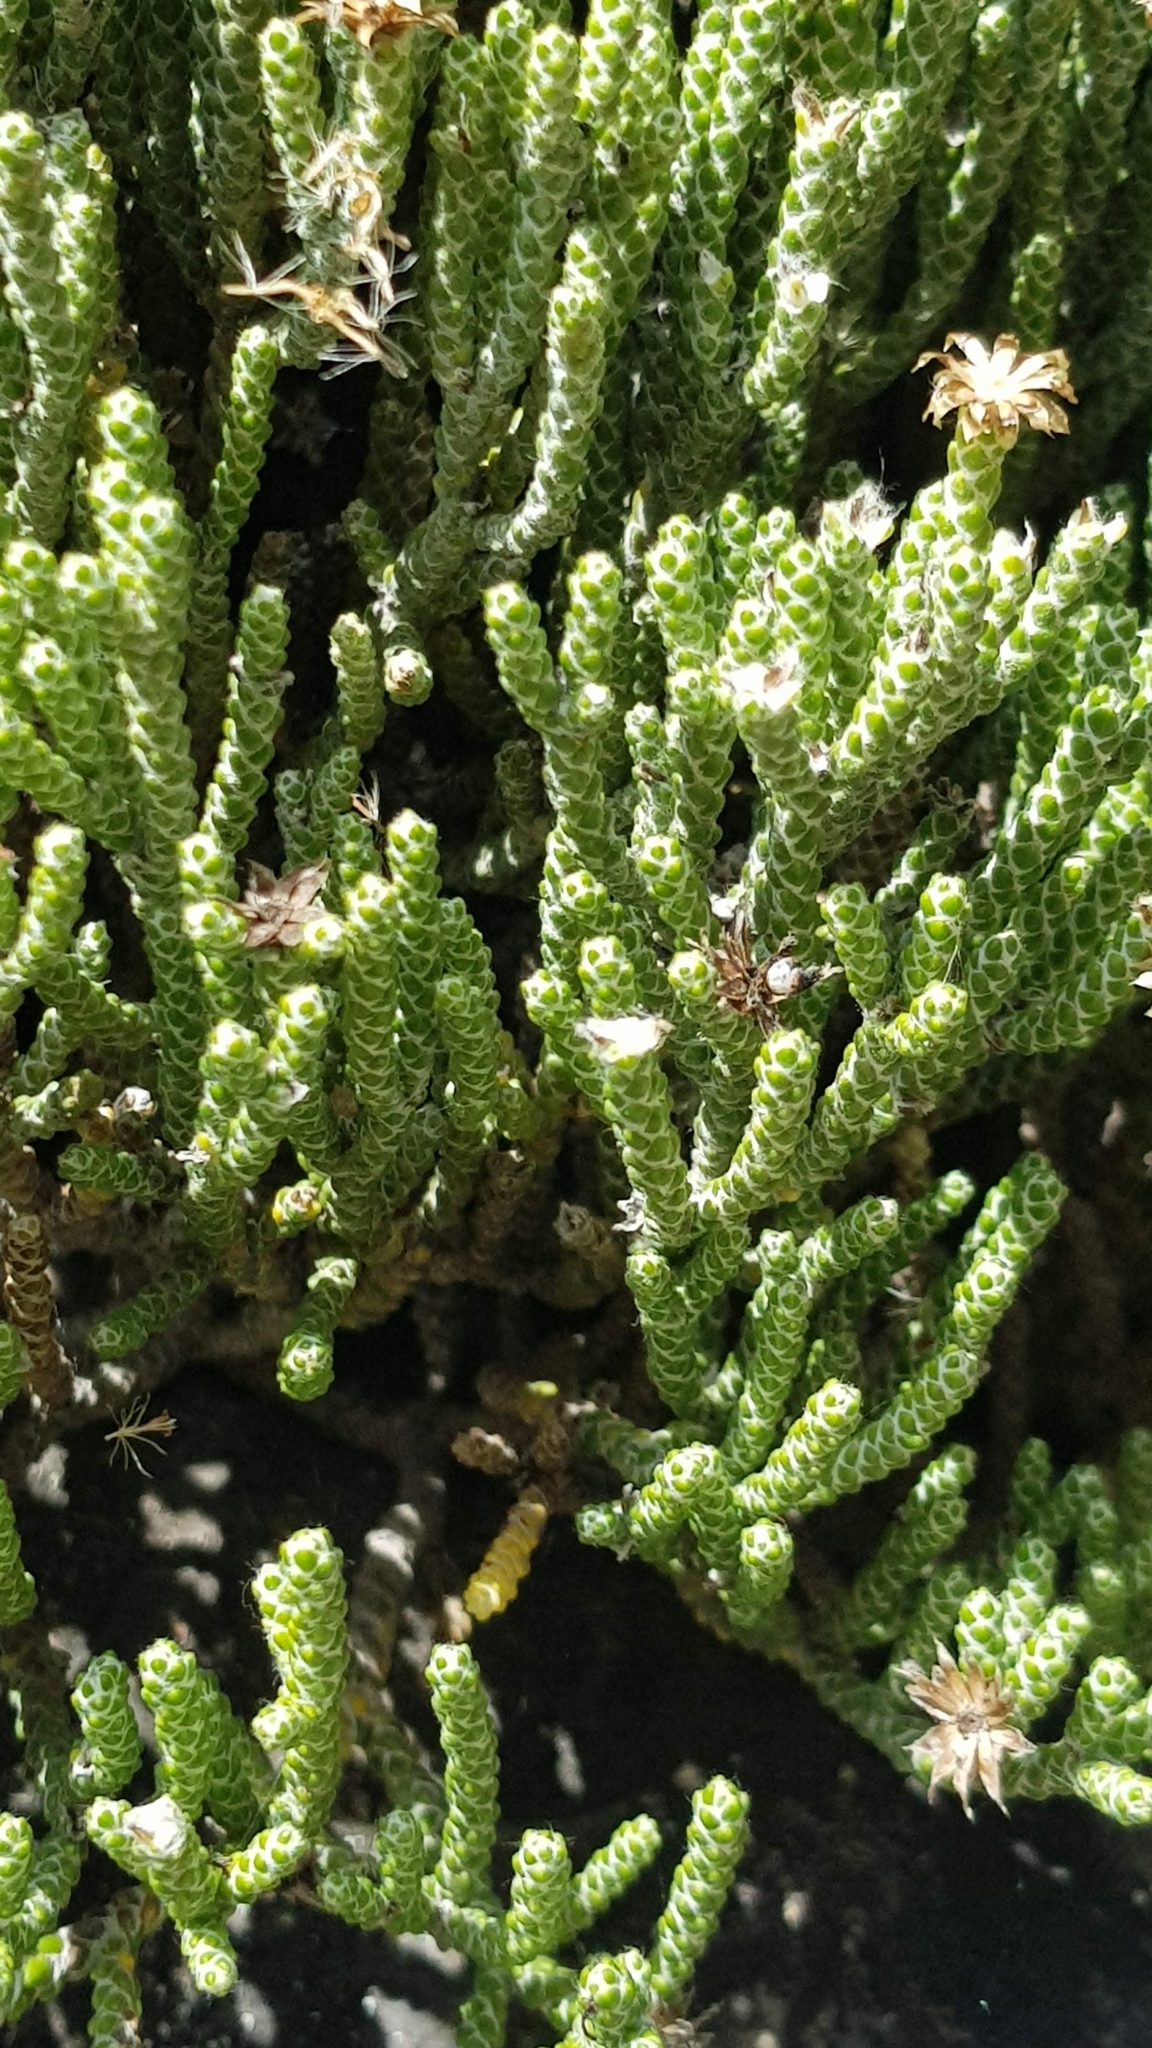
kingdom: Plantae
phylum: Tracheophyta
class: Magnoliopsida
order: Asterales
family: Asteraceae
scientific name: Asteraceae
